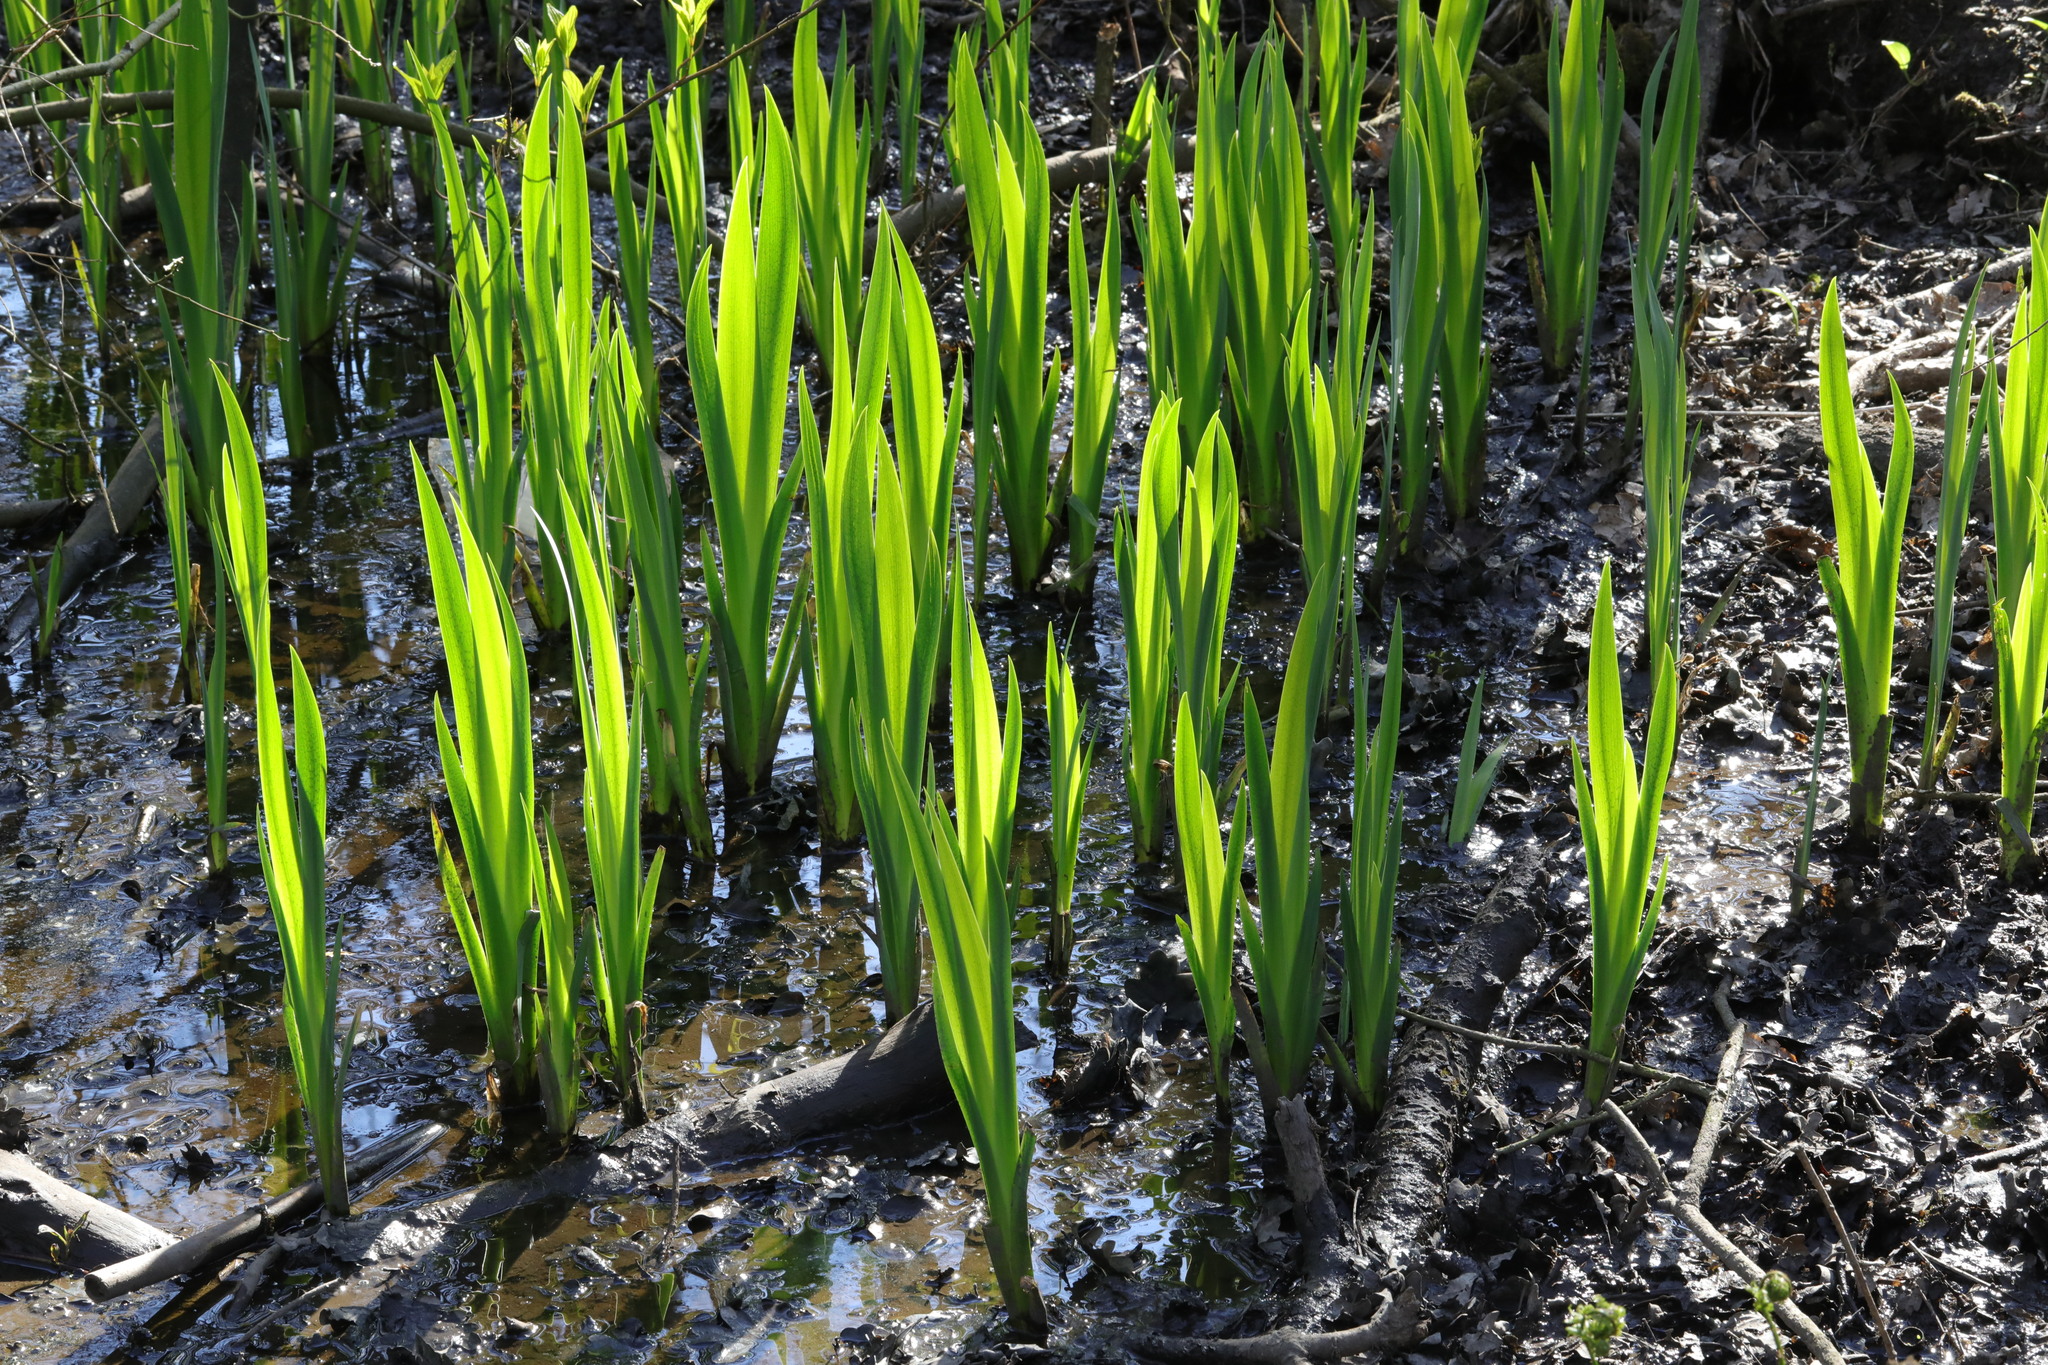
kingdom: Plantae
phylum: Tracheophyta
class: Liliopsida
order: Asparagales
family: Iridaceae
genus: Iris
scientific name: Iris pseudacorus
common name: Yellow flag
